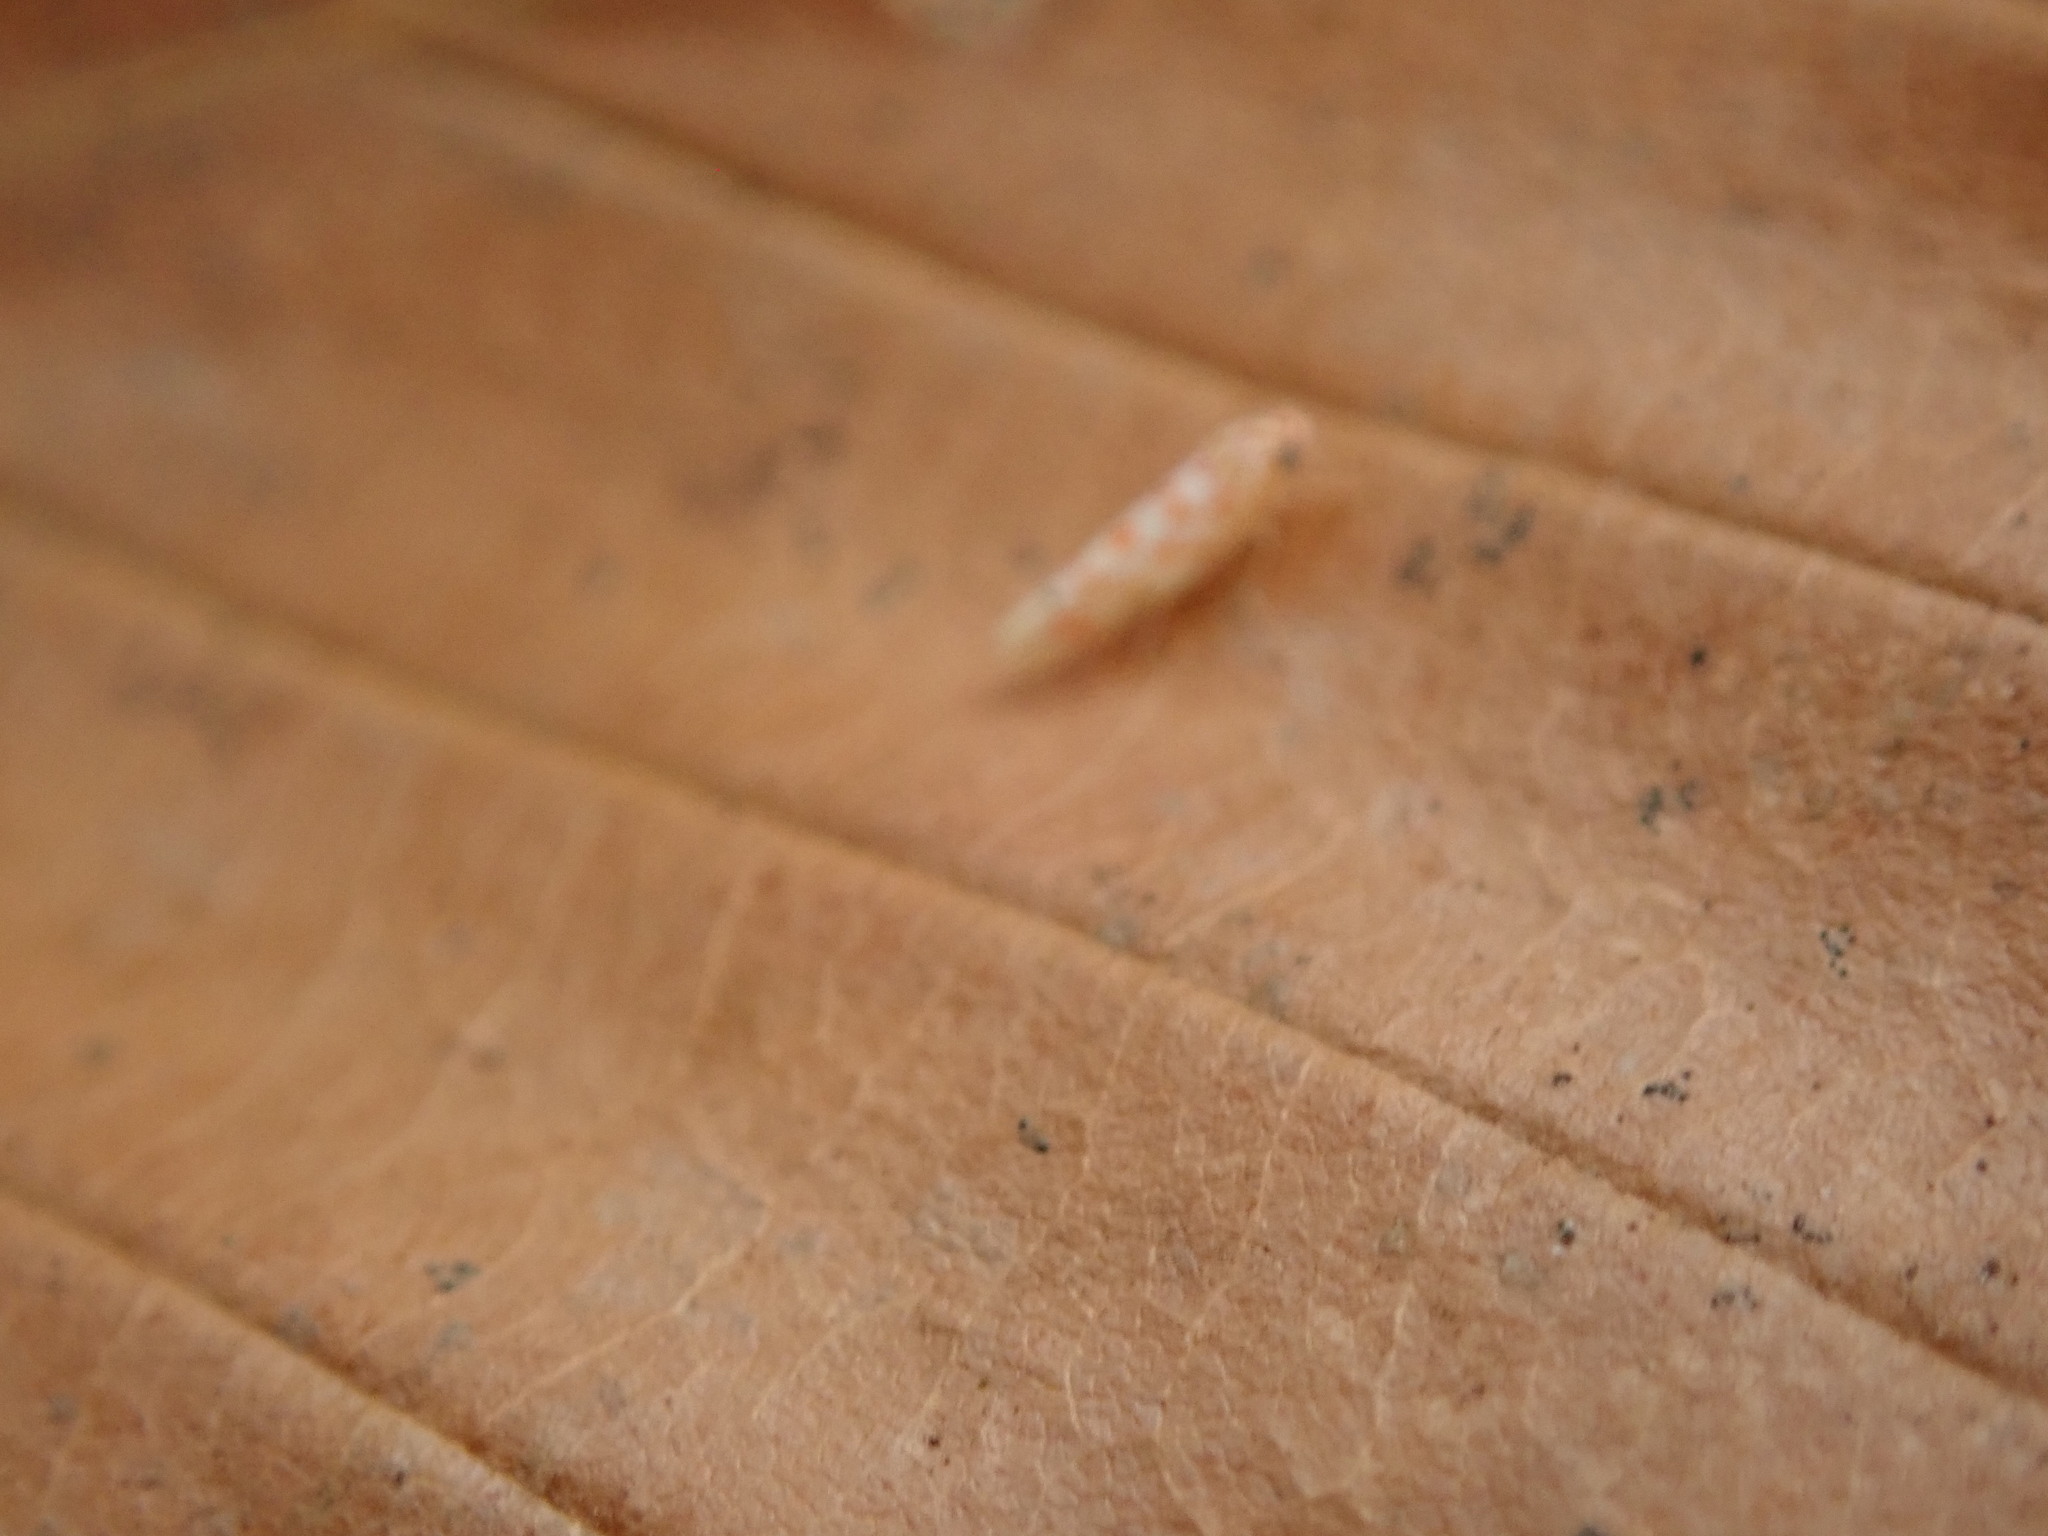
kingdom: Animalia
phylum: Arthropoda
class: Insecta
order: Hemiptera
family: Cicadellidae
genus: Eratoneura
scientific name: Eratoneura
